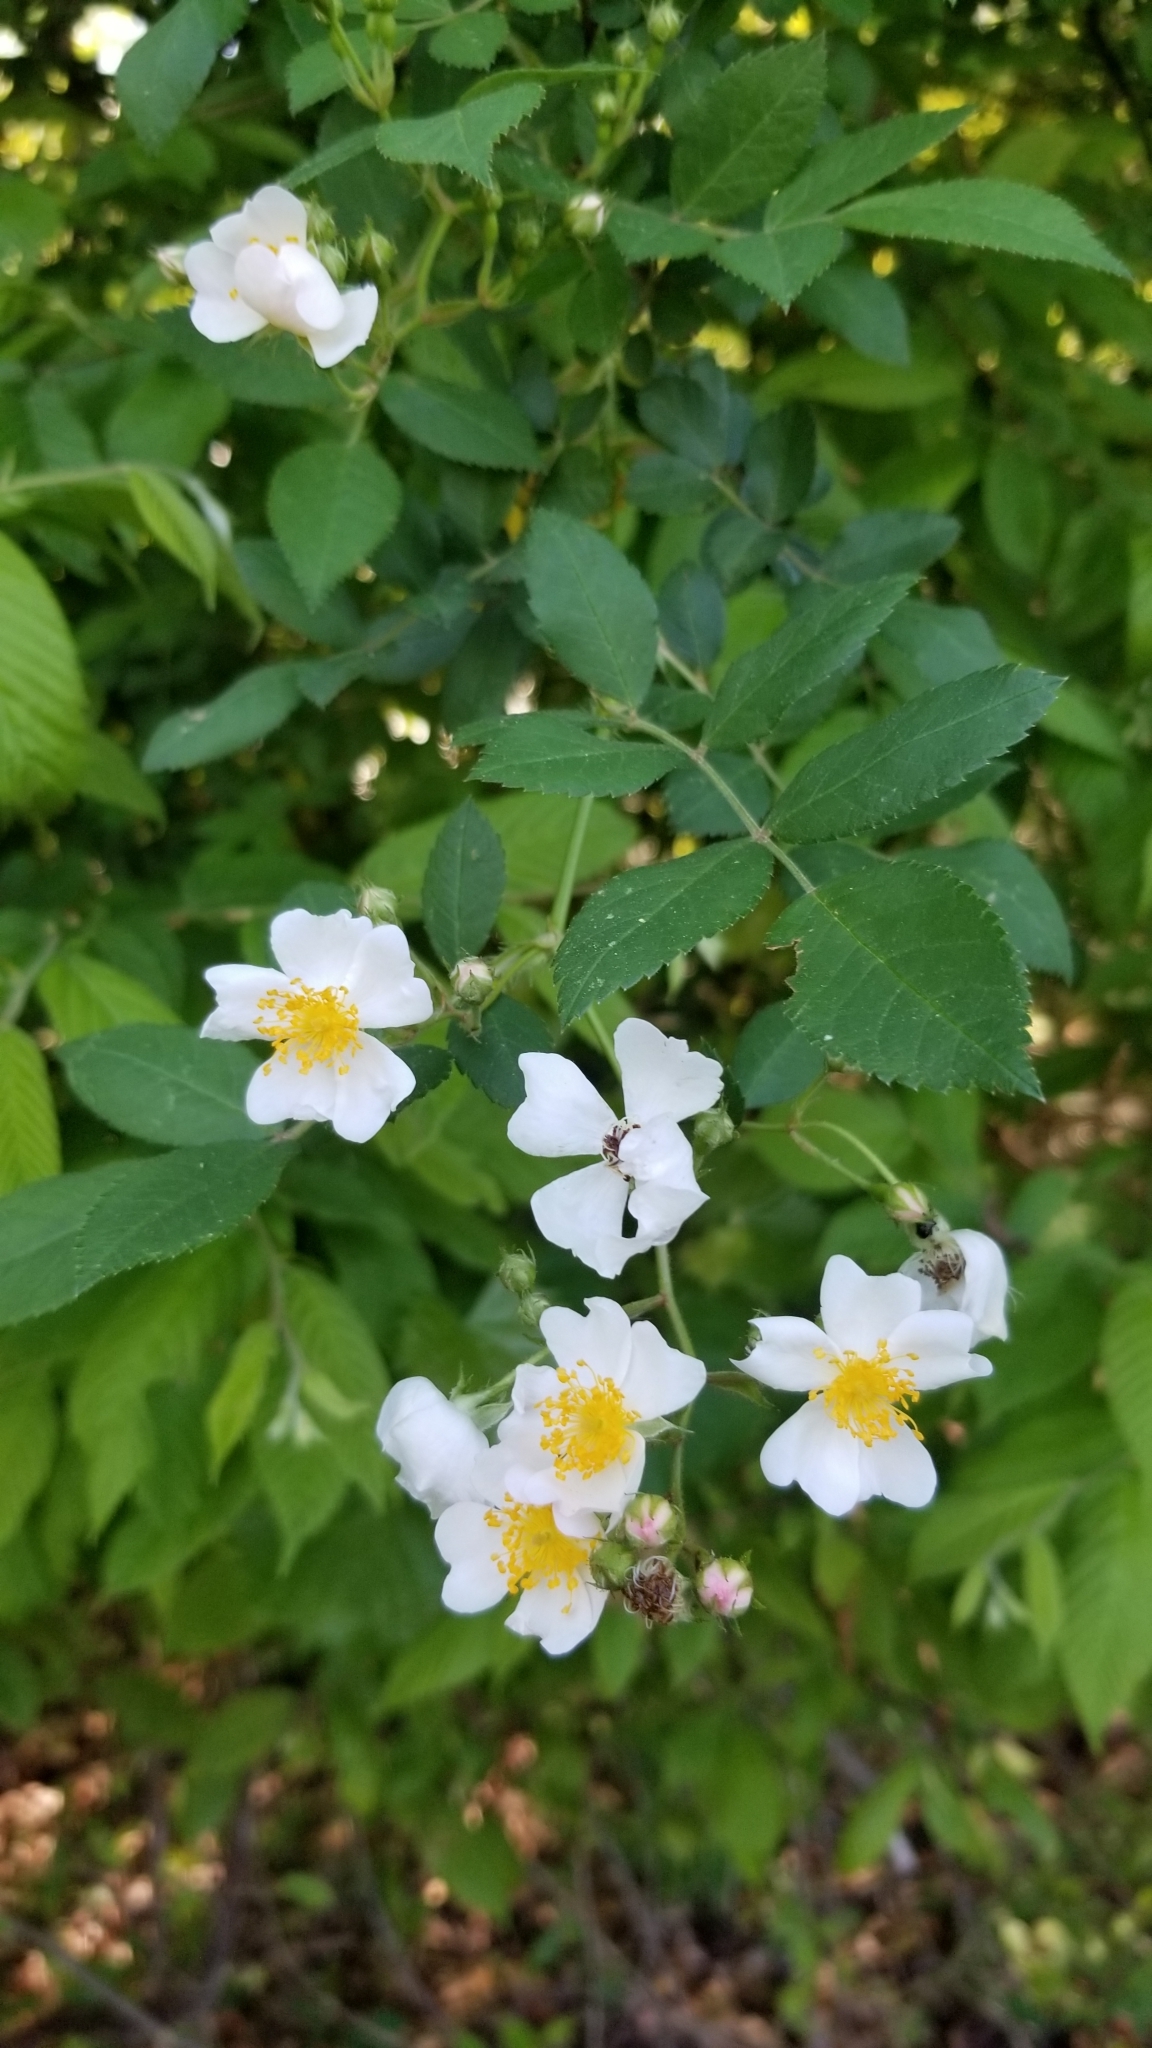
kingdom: Plantae
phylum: Tracheophyta
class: Magnoliopsida
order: Rosales
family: Rosaceae
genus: Rosa
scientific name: Rosa multiflora
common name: Multiflora rose
